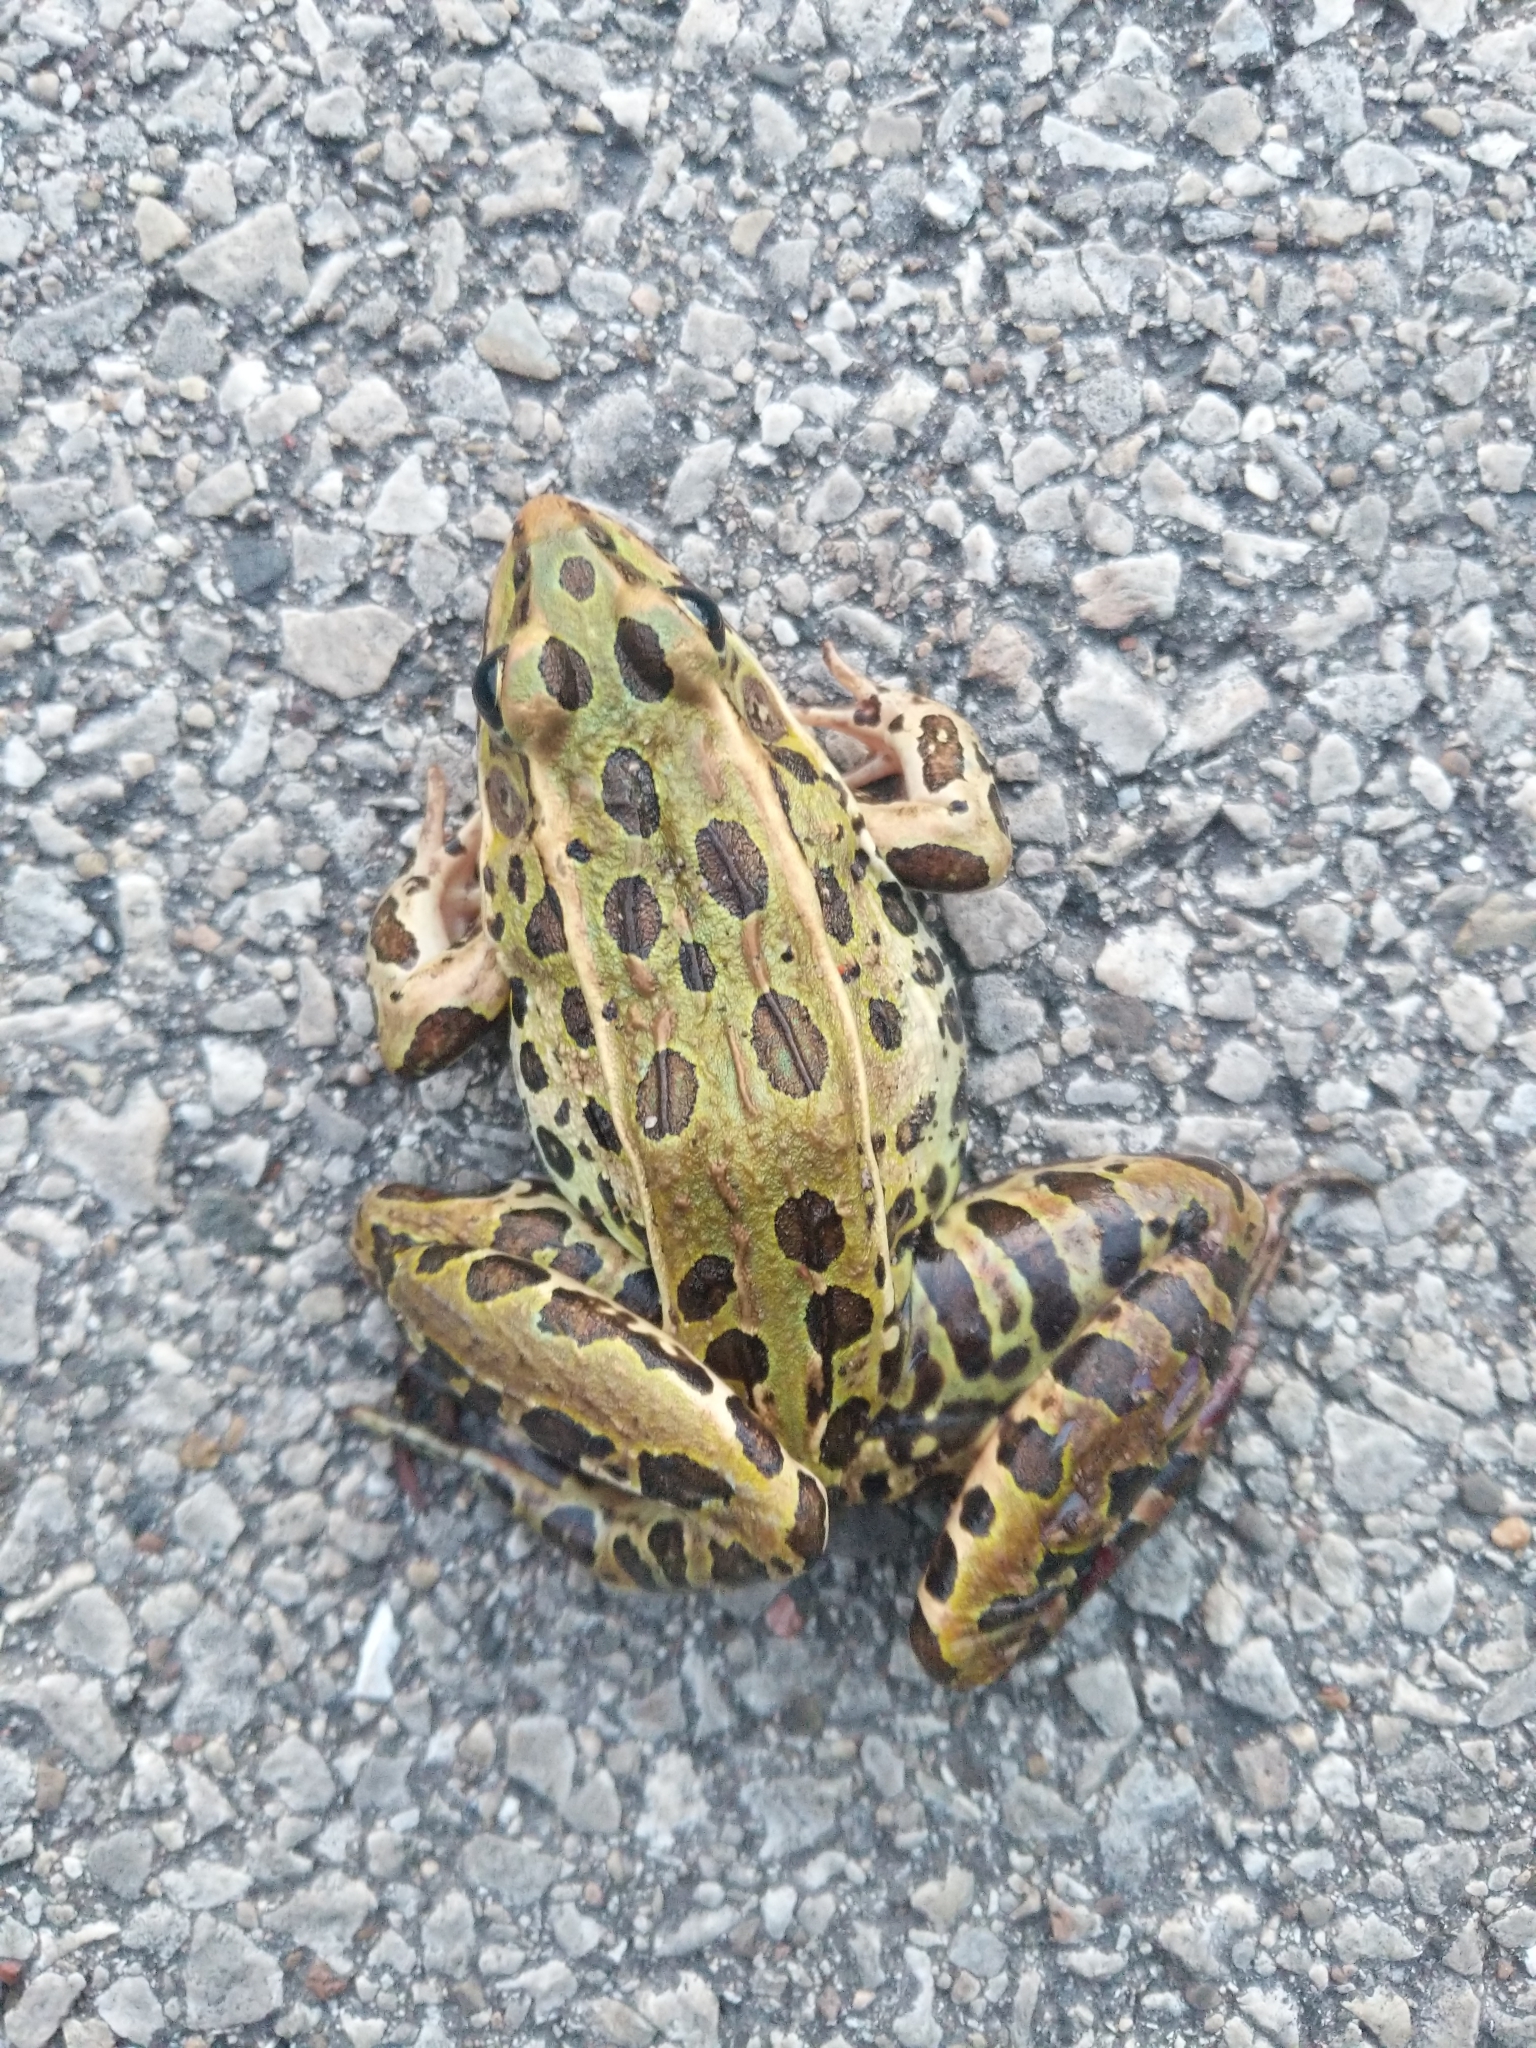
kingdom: Animalia
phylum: Chordata
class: Amphibia
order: Anura
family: Ranidae
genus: Lithobates
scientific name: Lithobates pipiens
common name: Northern leopard frog
